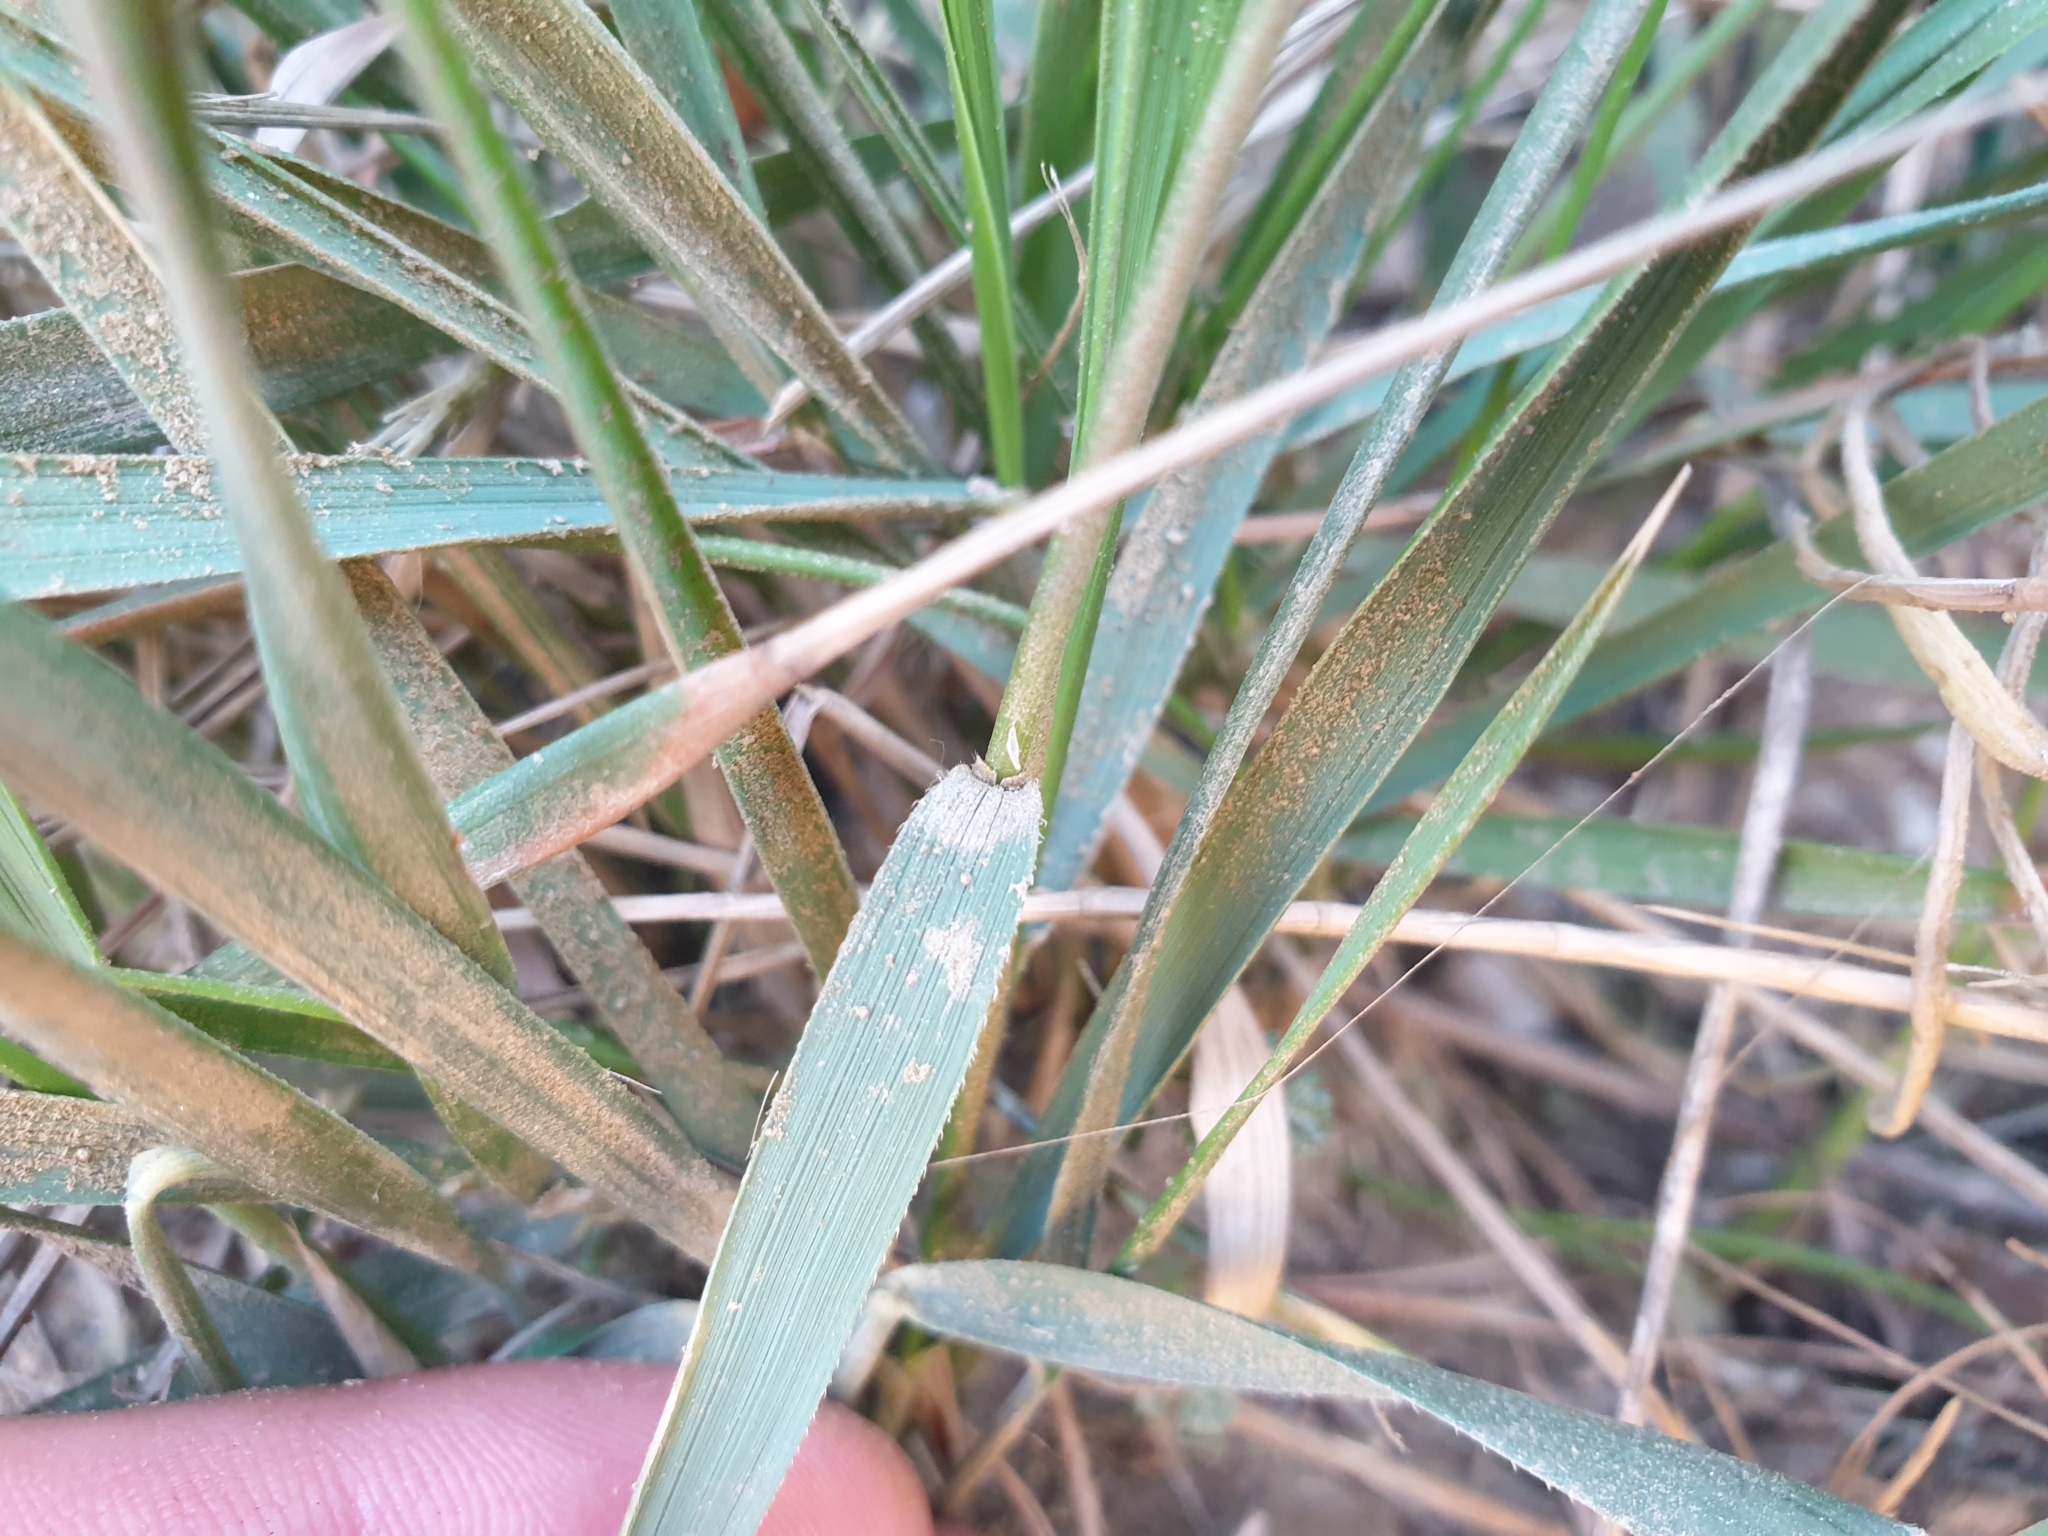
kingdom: Plantae
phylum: Tracheophyta
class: Liliopsida
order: Poales
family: Poaceae
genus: Brachypodium
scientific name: Brachypodium phoenicoides
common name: Thinleaf false brome
